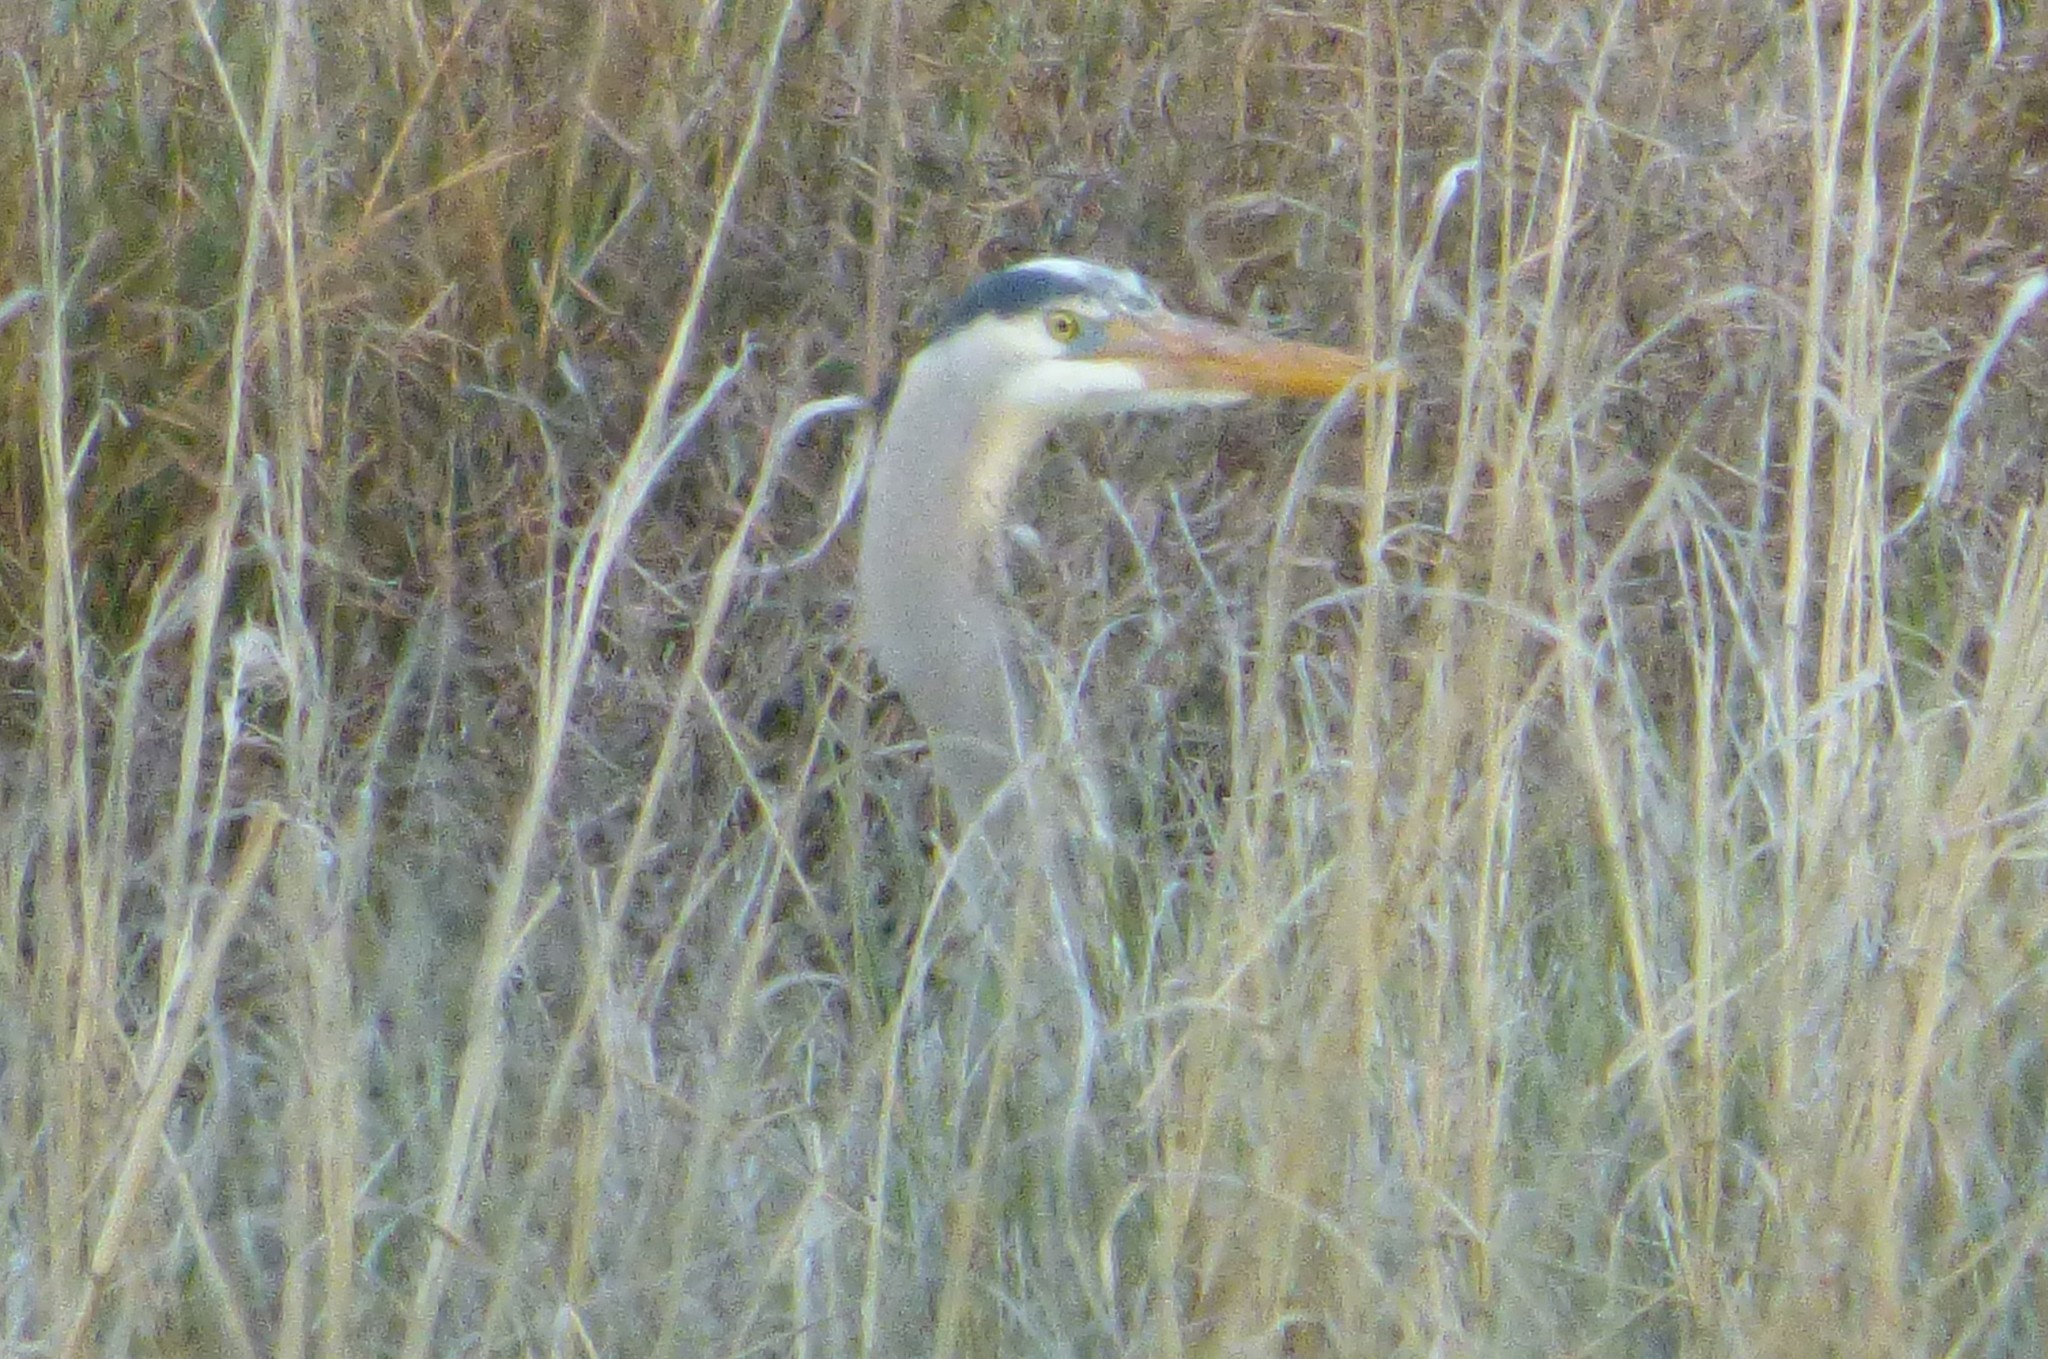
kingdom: Animalia
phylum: Chordata
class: Aves
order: Pelecaniformes
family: Ardeidae
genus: Ardea
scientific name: Ardea herodias
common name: Great blue heron
